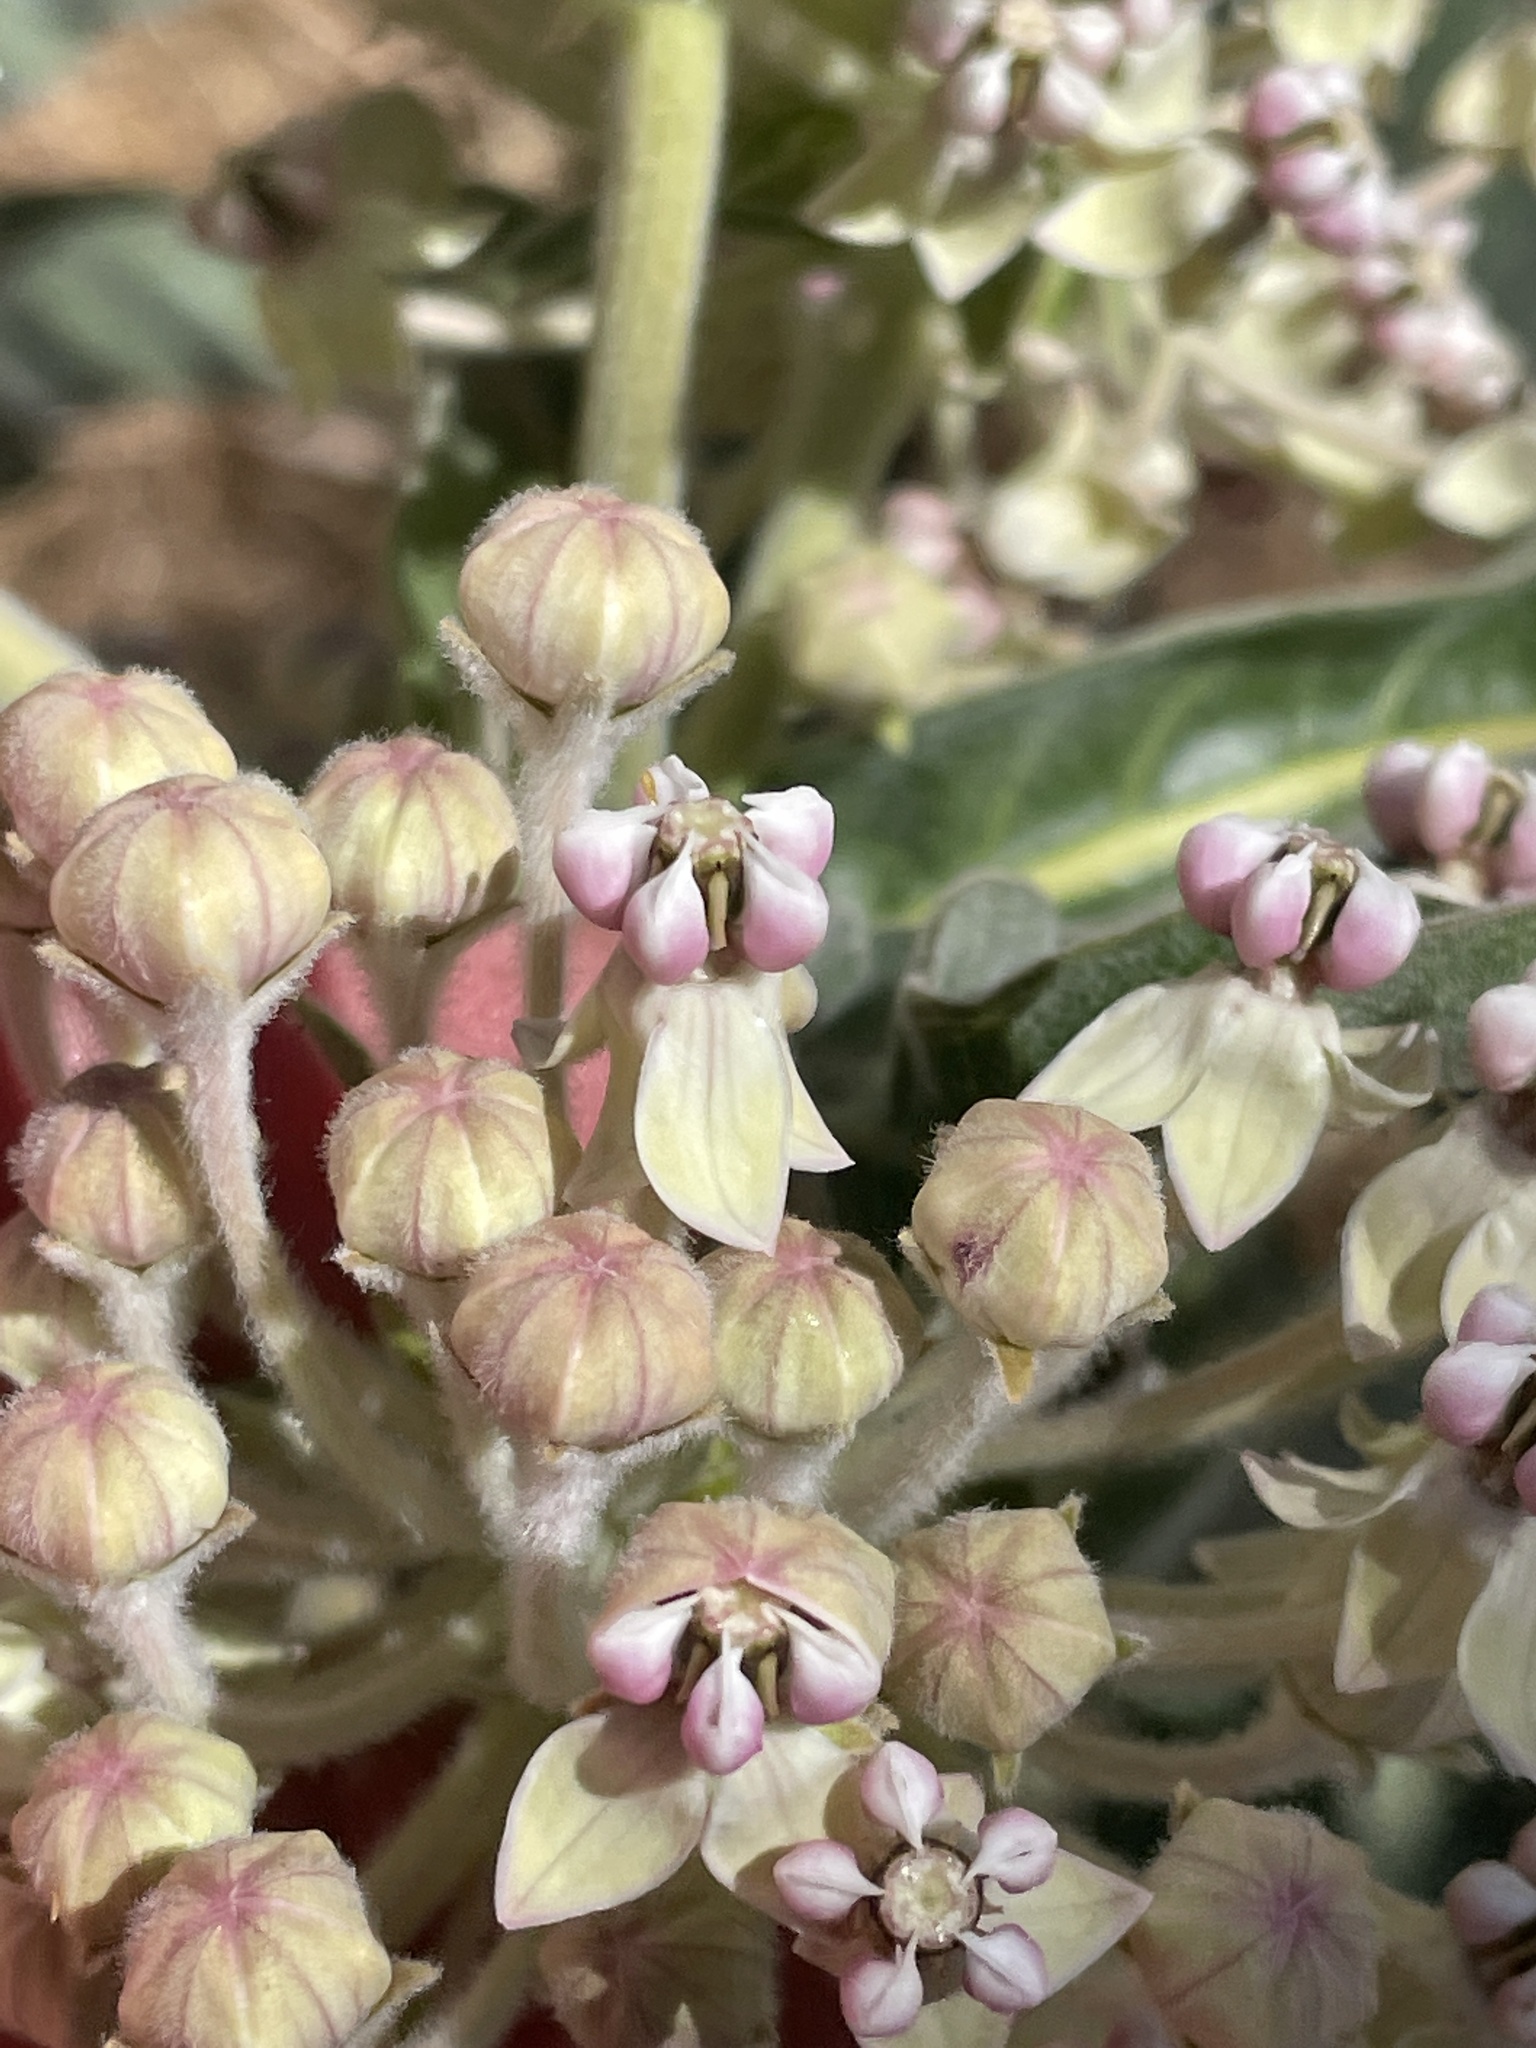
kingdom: Plantae
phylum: Tracheophyta
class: Magnoliopsida
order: Gentianales
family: Apocynaceae
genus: Asclepias
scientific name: Asclepias eriocarpa
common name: Indian milkweed
